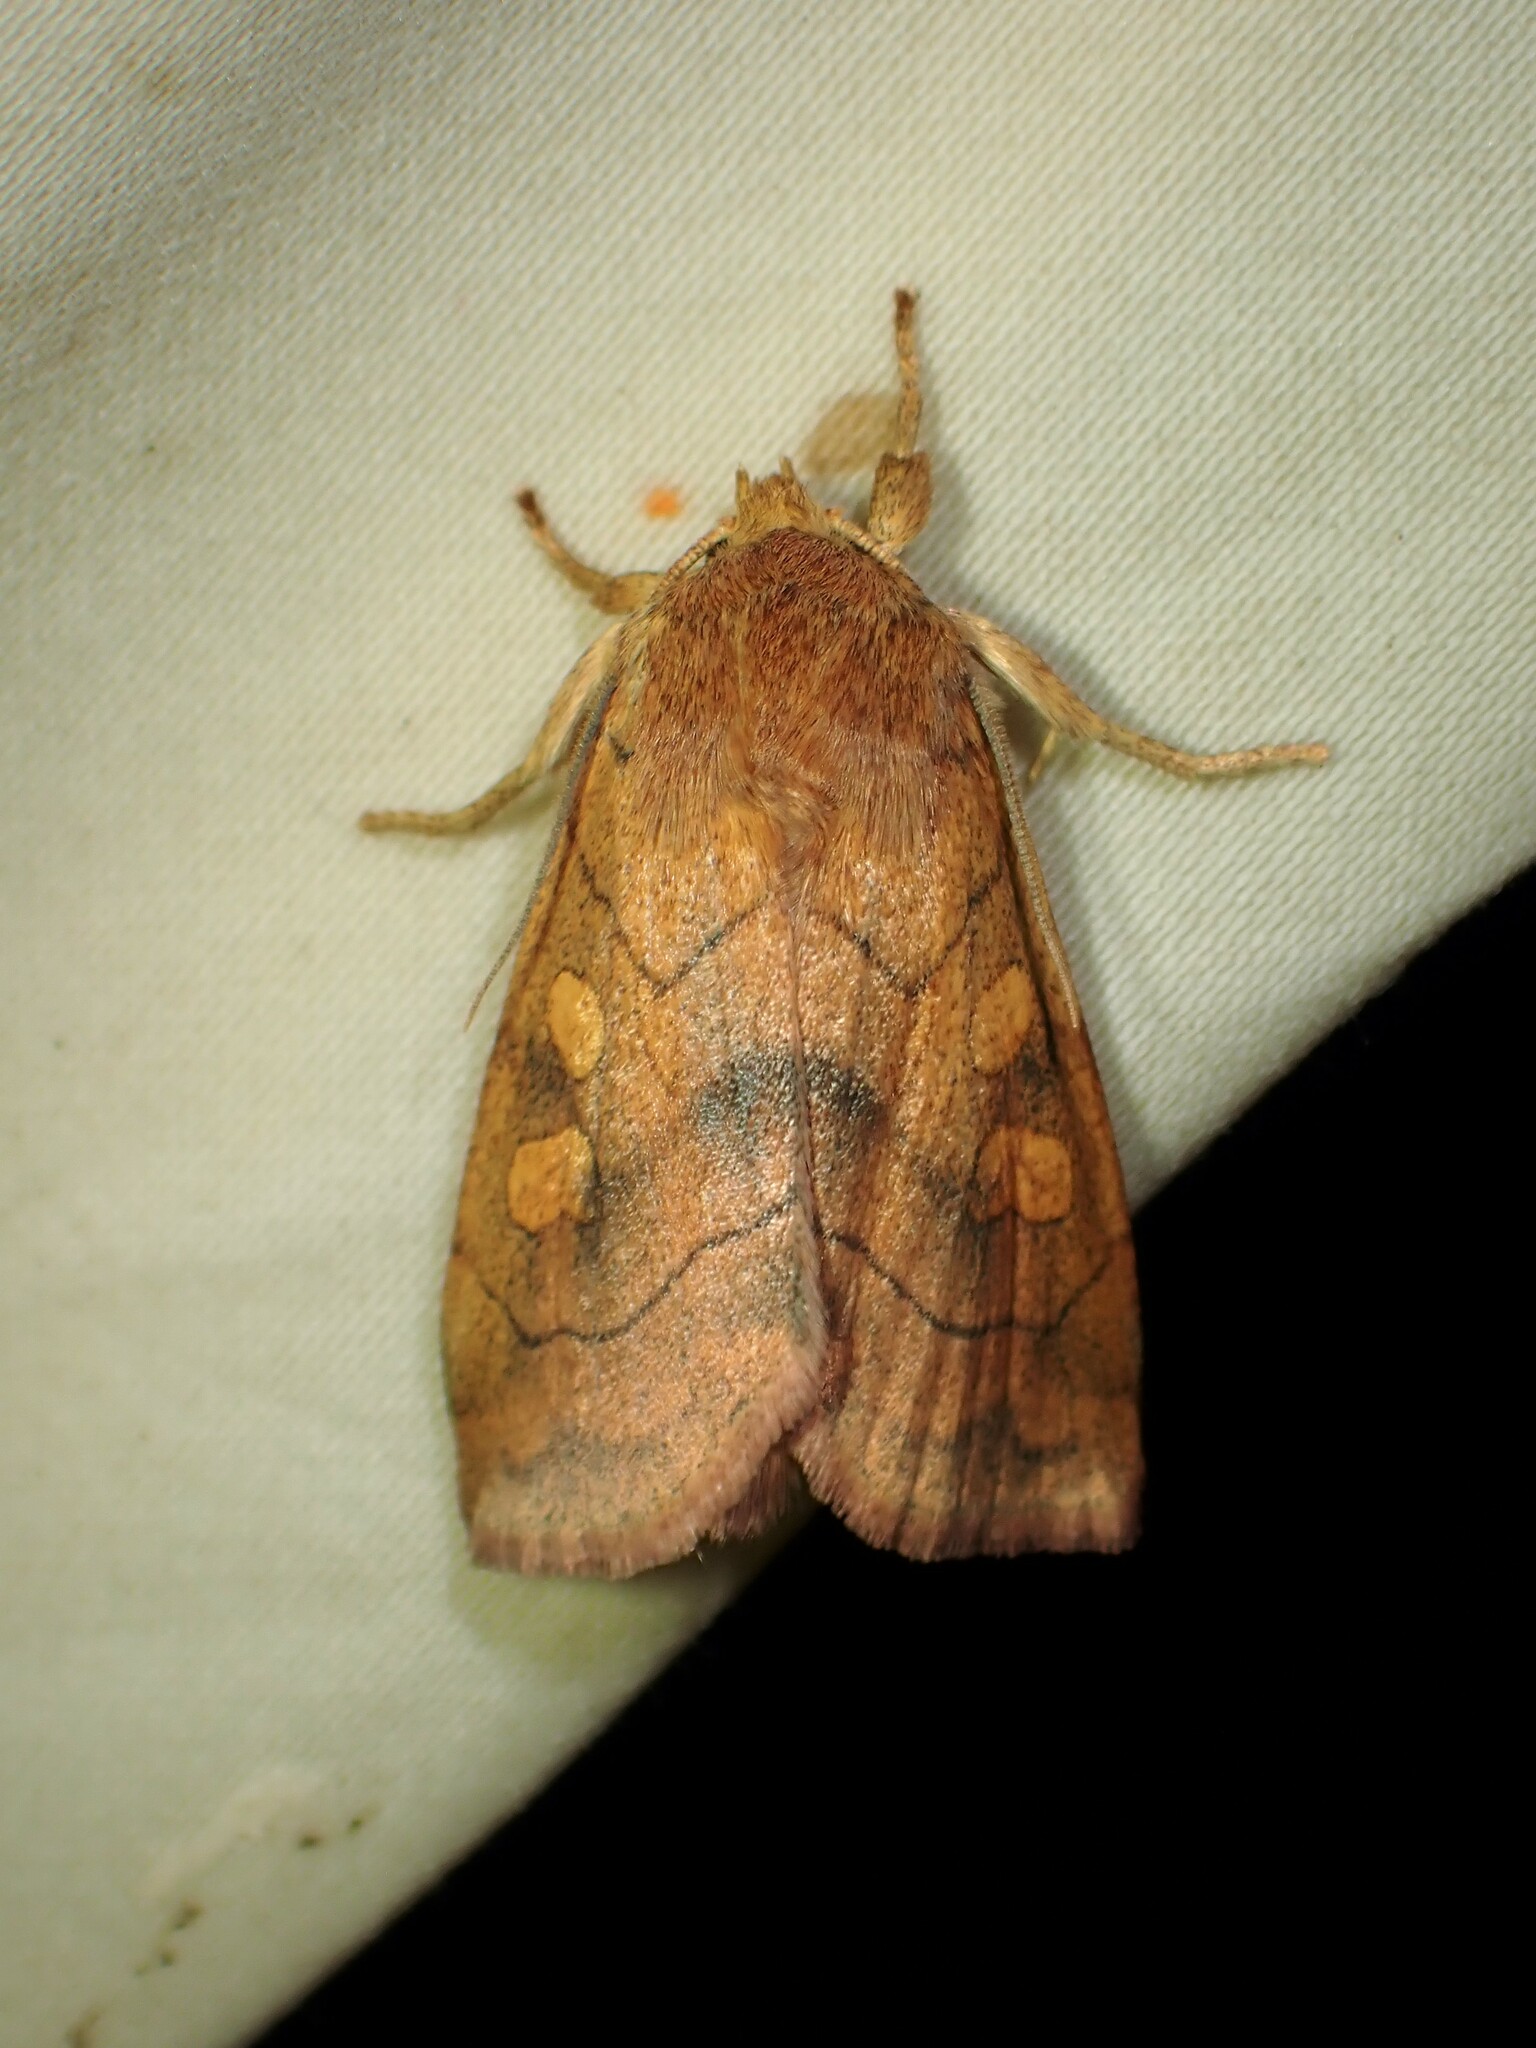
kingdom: Animalia
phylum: Arthropoda
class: Insecta
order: Lepidoptera
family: Noctuidae
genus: Enargia
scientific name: Enargia decolor
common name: Aspen twoleaf tier moth
